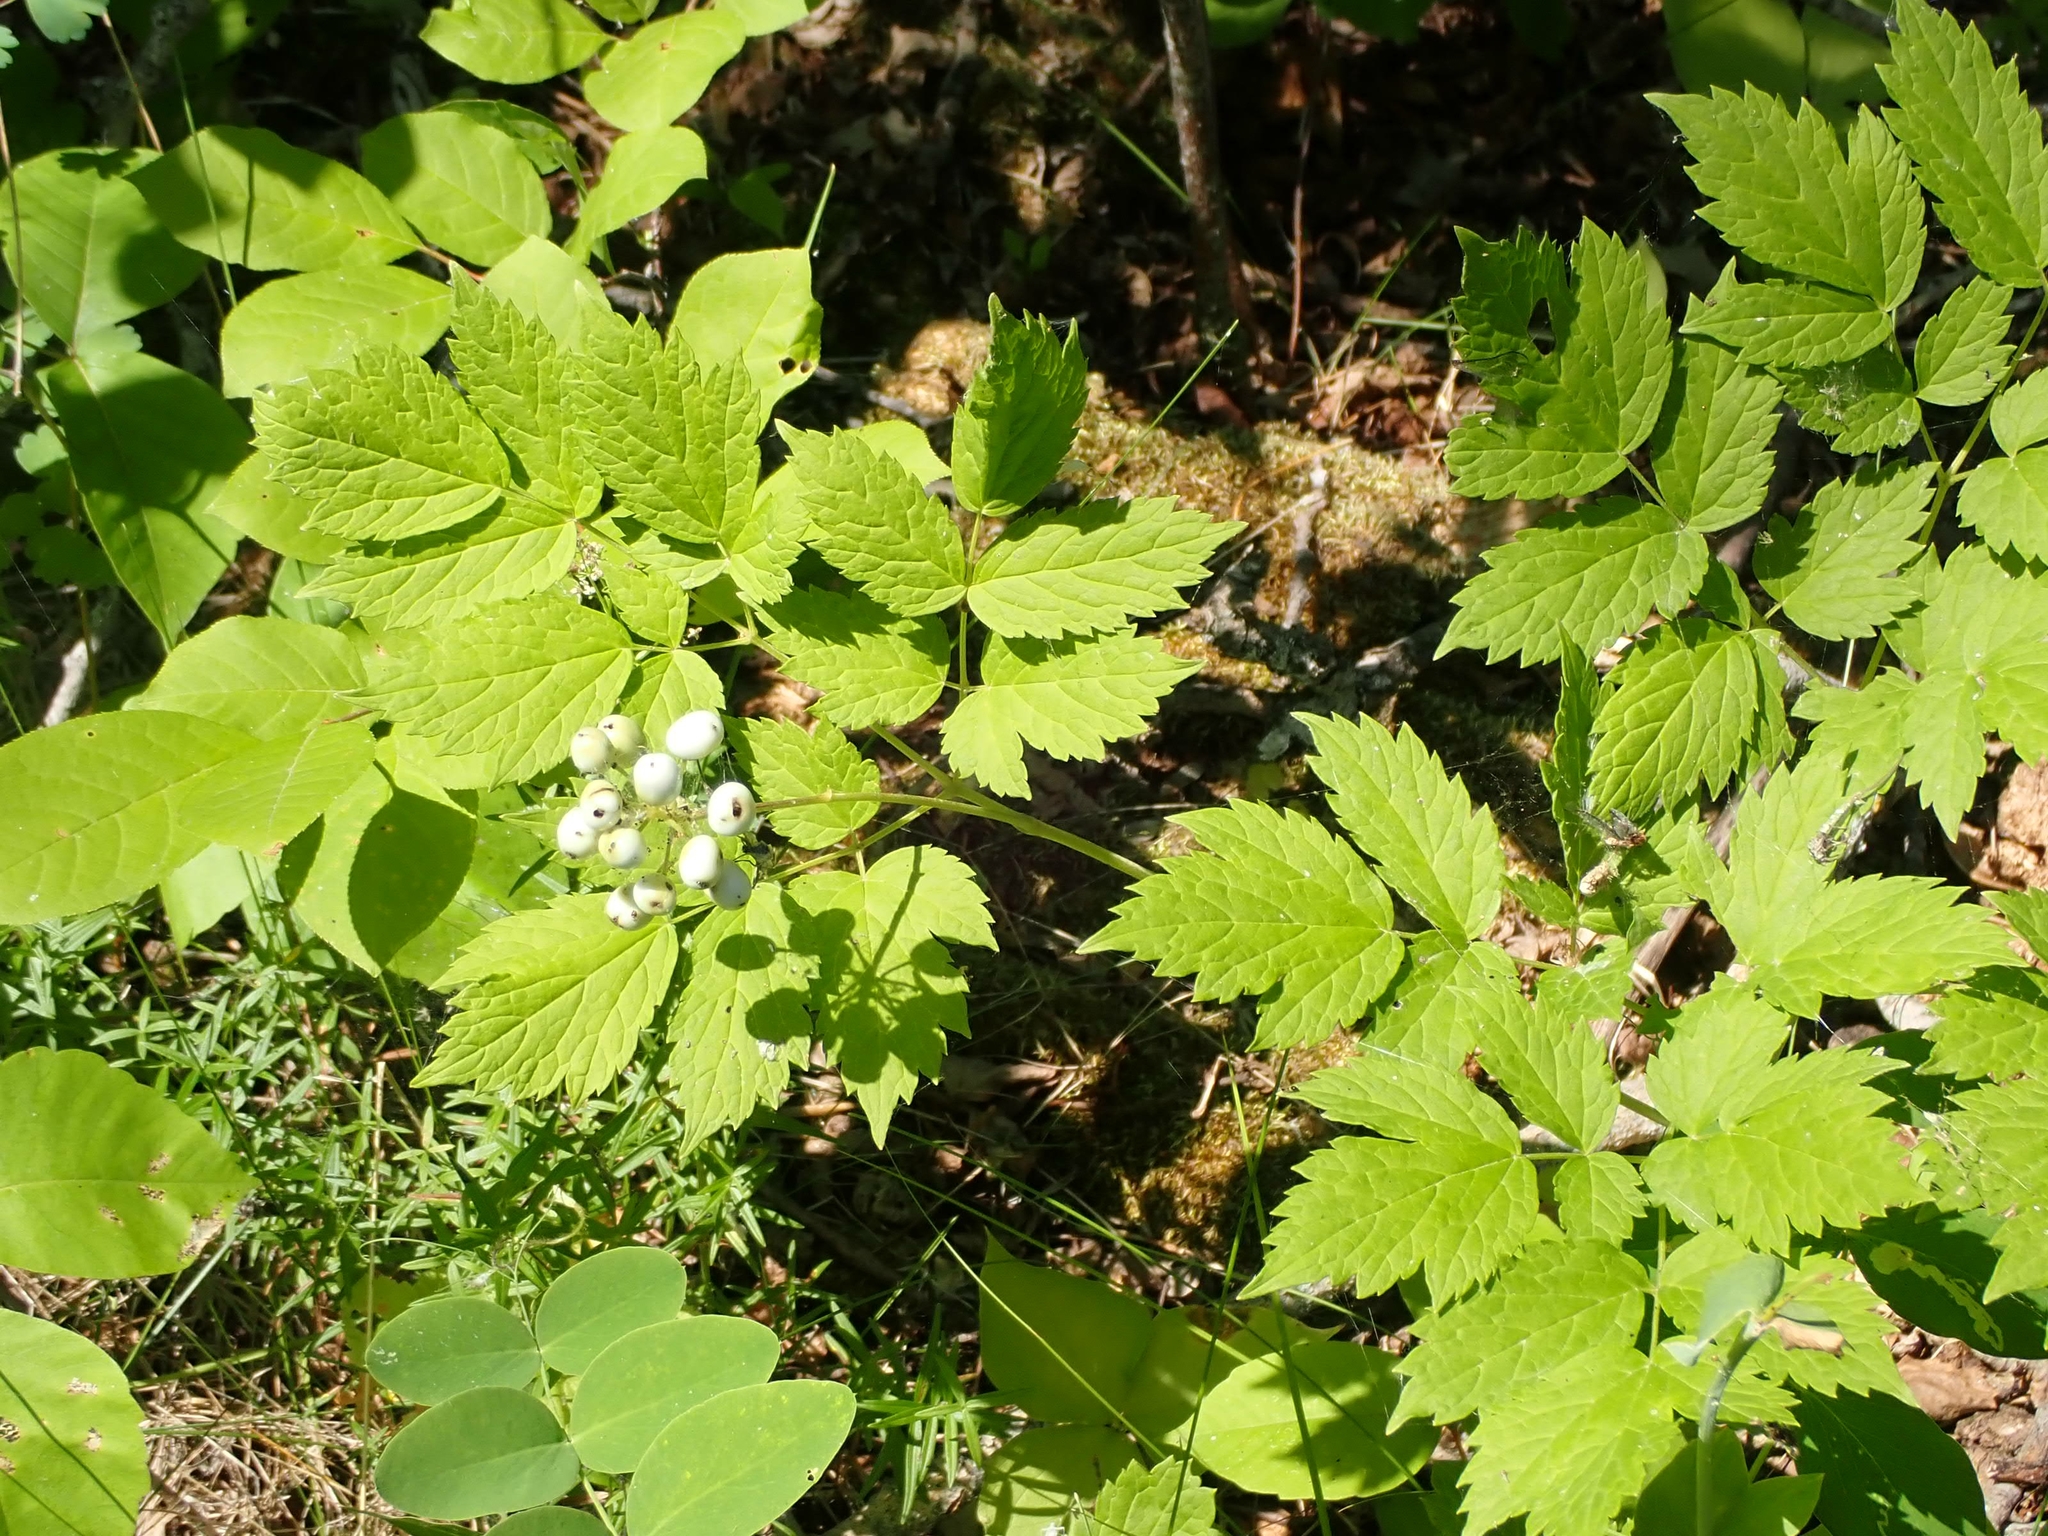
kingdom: Plantae
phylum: Tracheophyta
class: Magnoliopsida
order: Ranunculales
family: Ranunculaceae
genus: Actaea
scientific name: Actaea rubra
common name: Red baneberry
